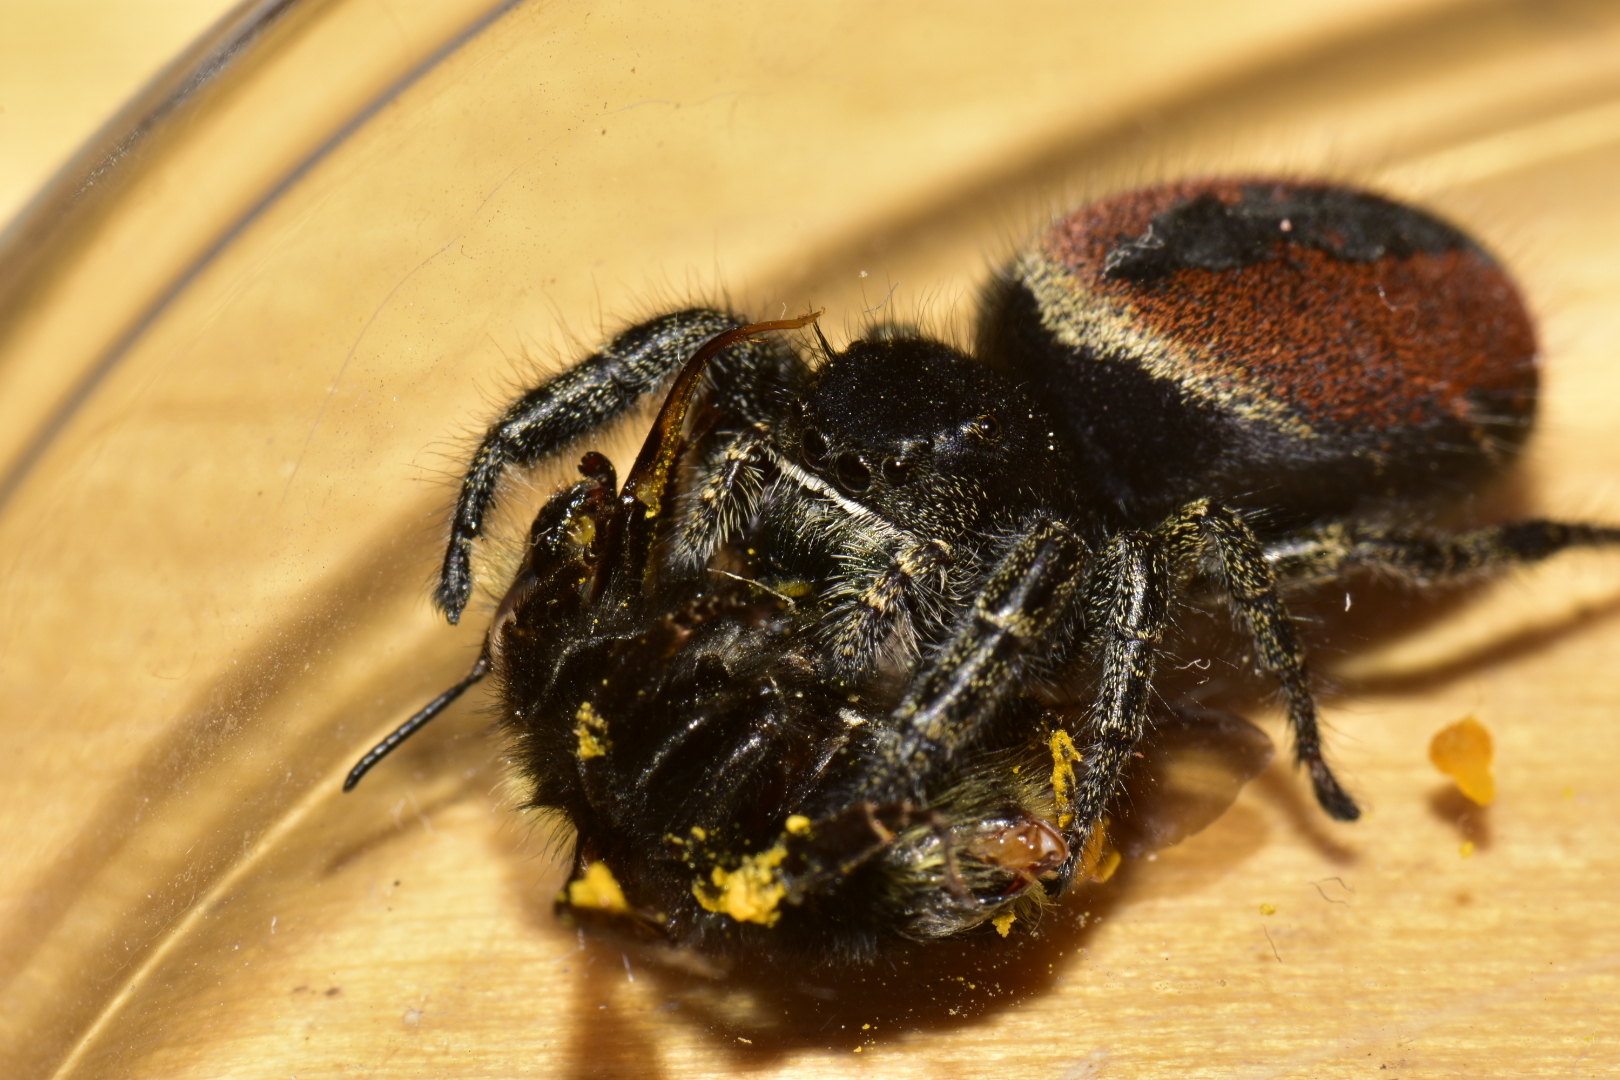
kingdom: Animalia
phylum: Arthropoda
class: Arachnida
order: Araneae
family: Salticidae
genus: Phidippus
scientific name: Phidippus johnsoni
